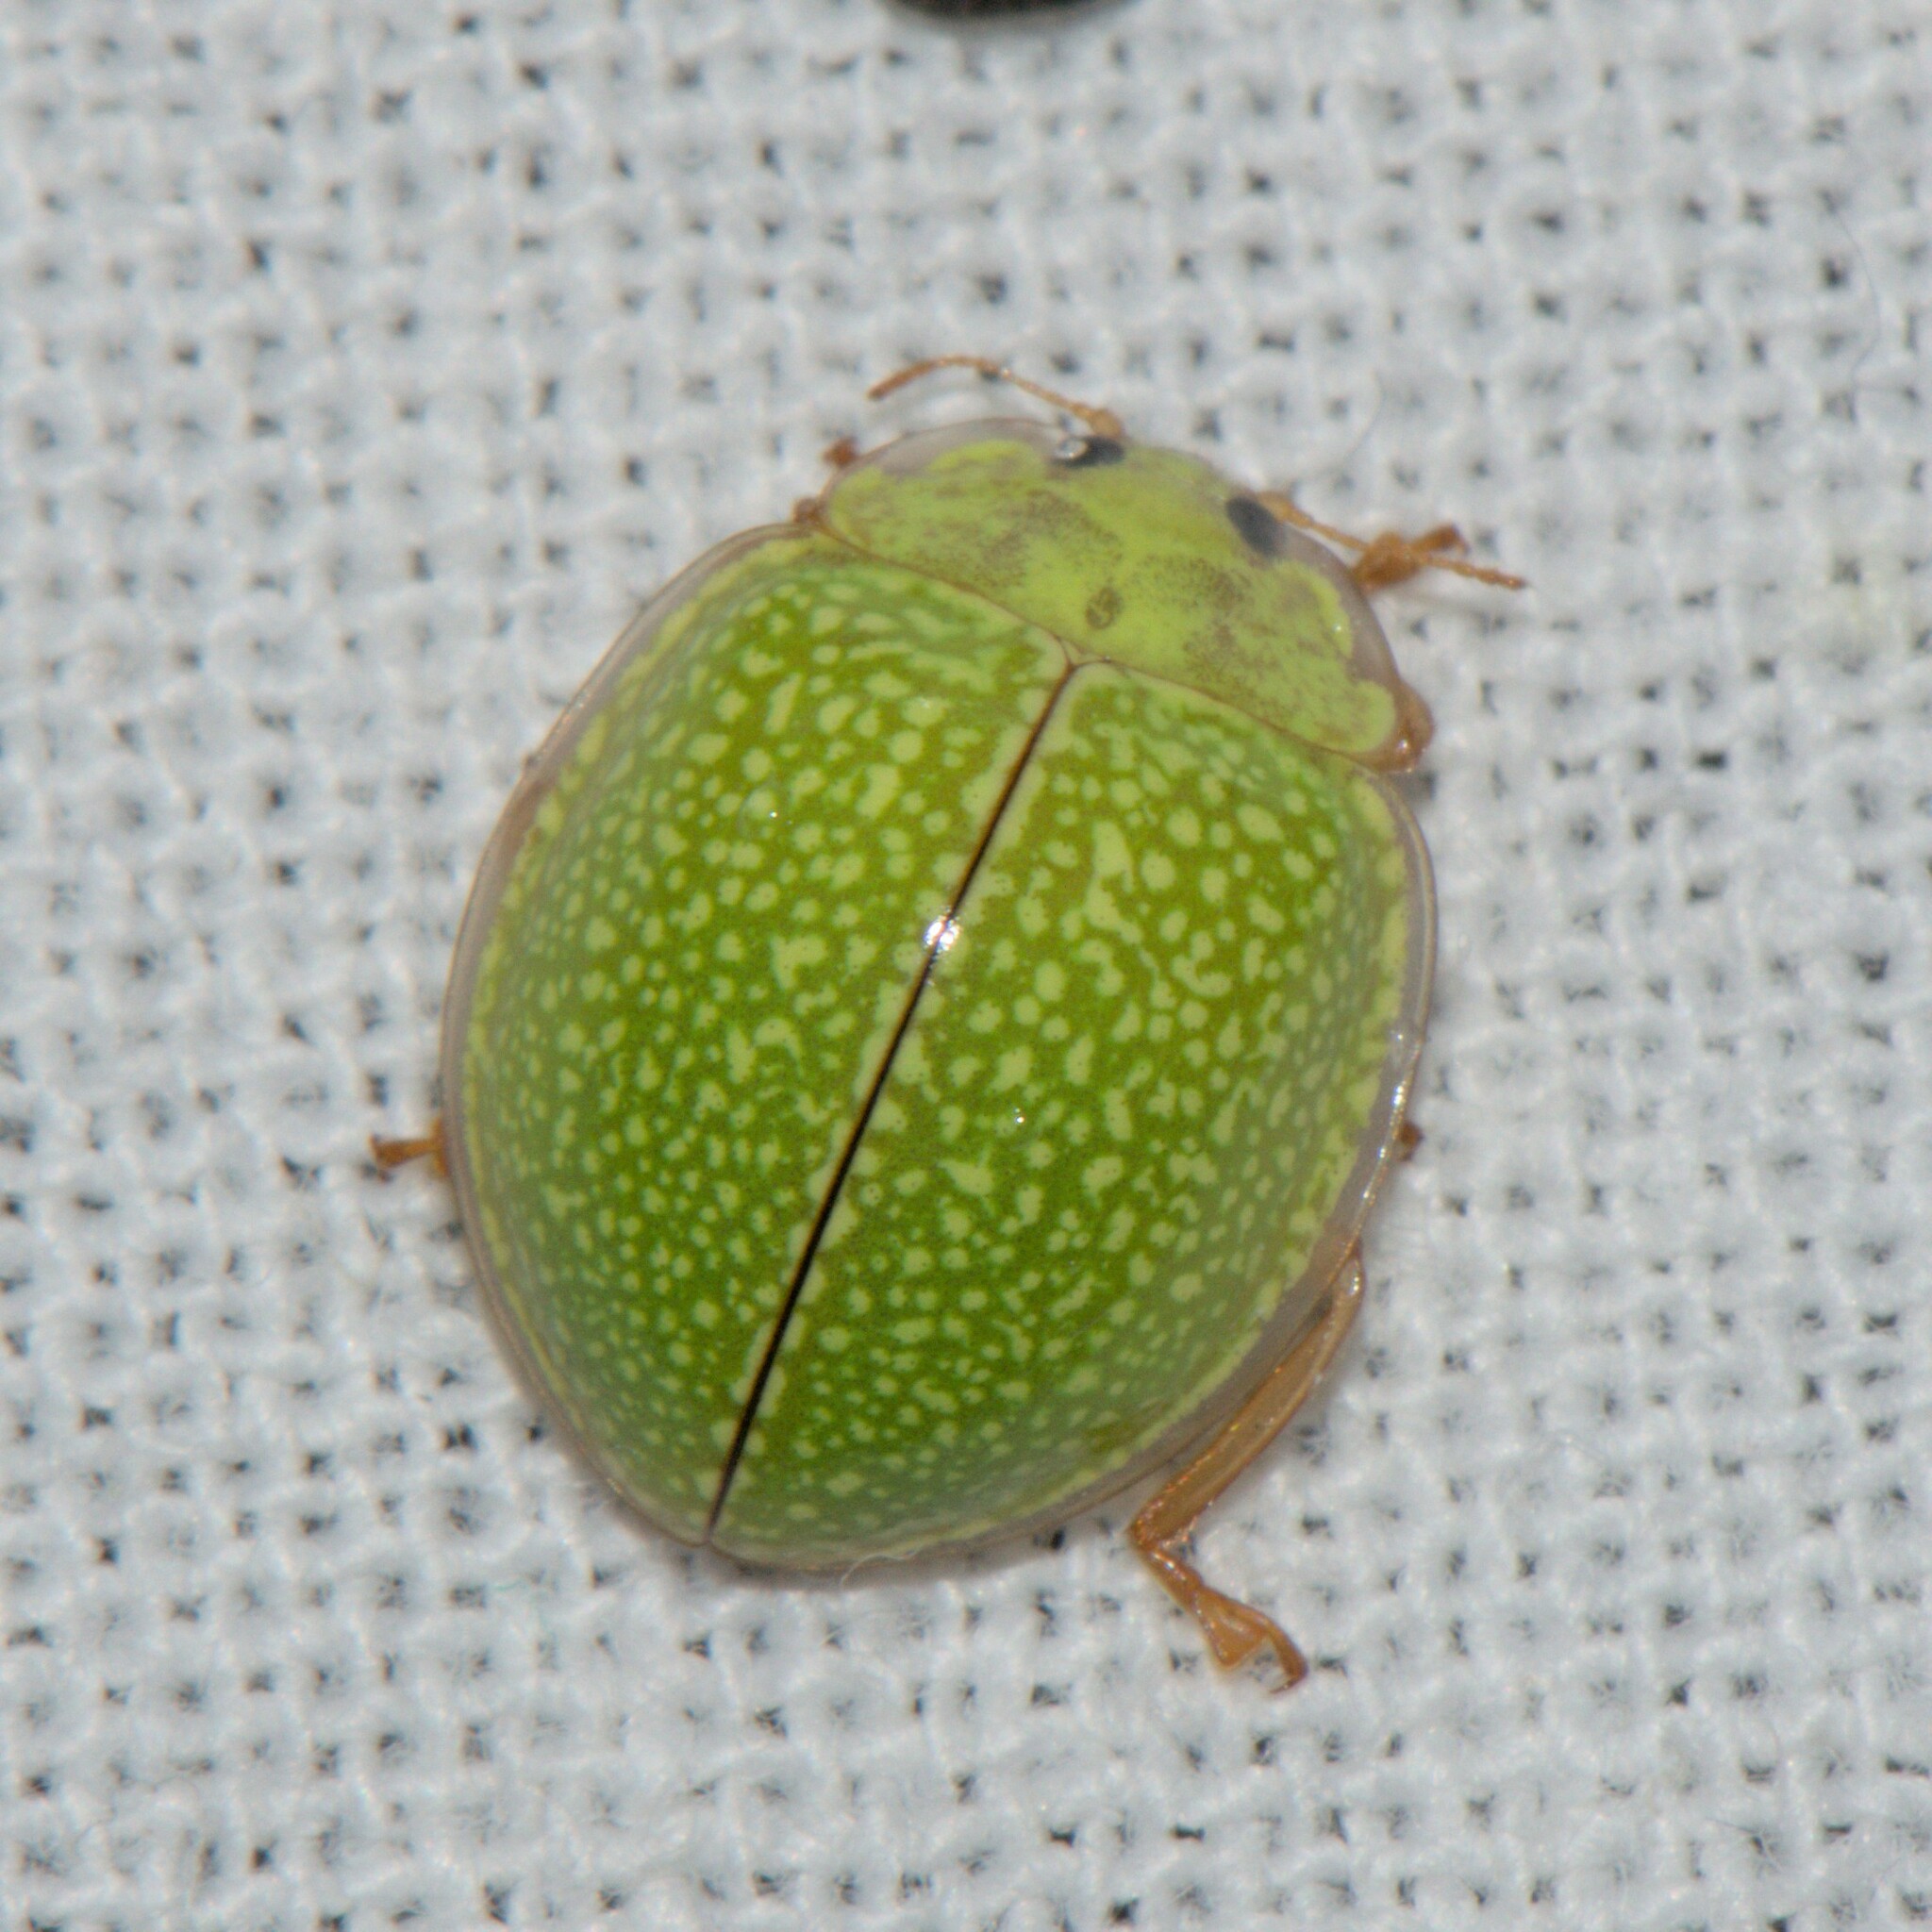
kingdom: Animalia
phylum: Arthropoda
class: Insecta
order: Coleoptera
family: Coccinellidae
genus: Calvia
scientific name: Calvia
